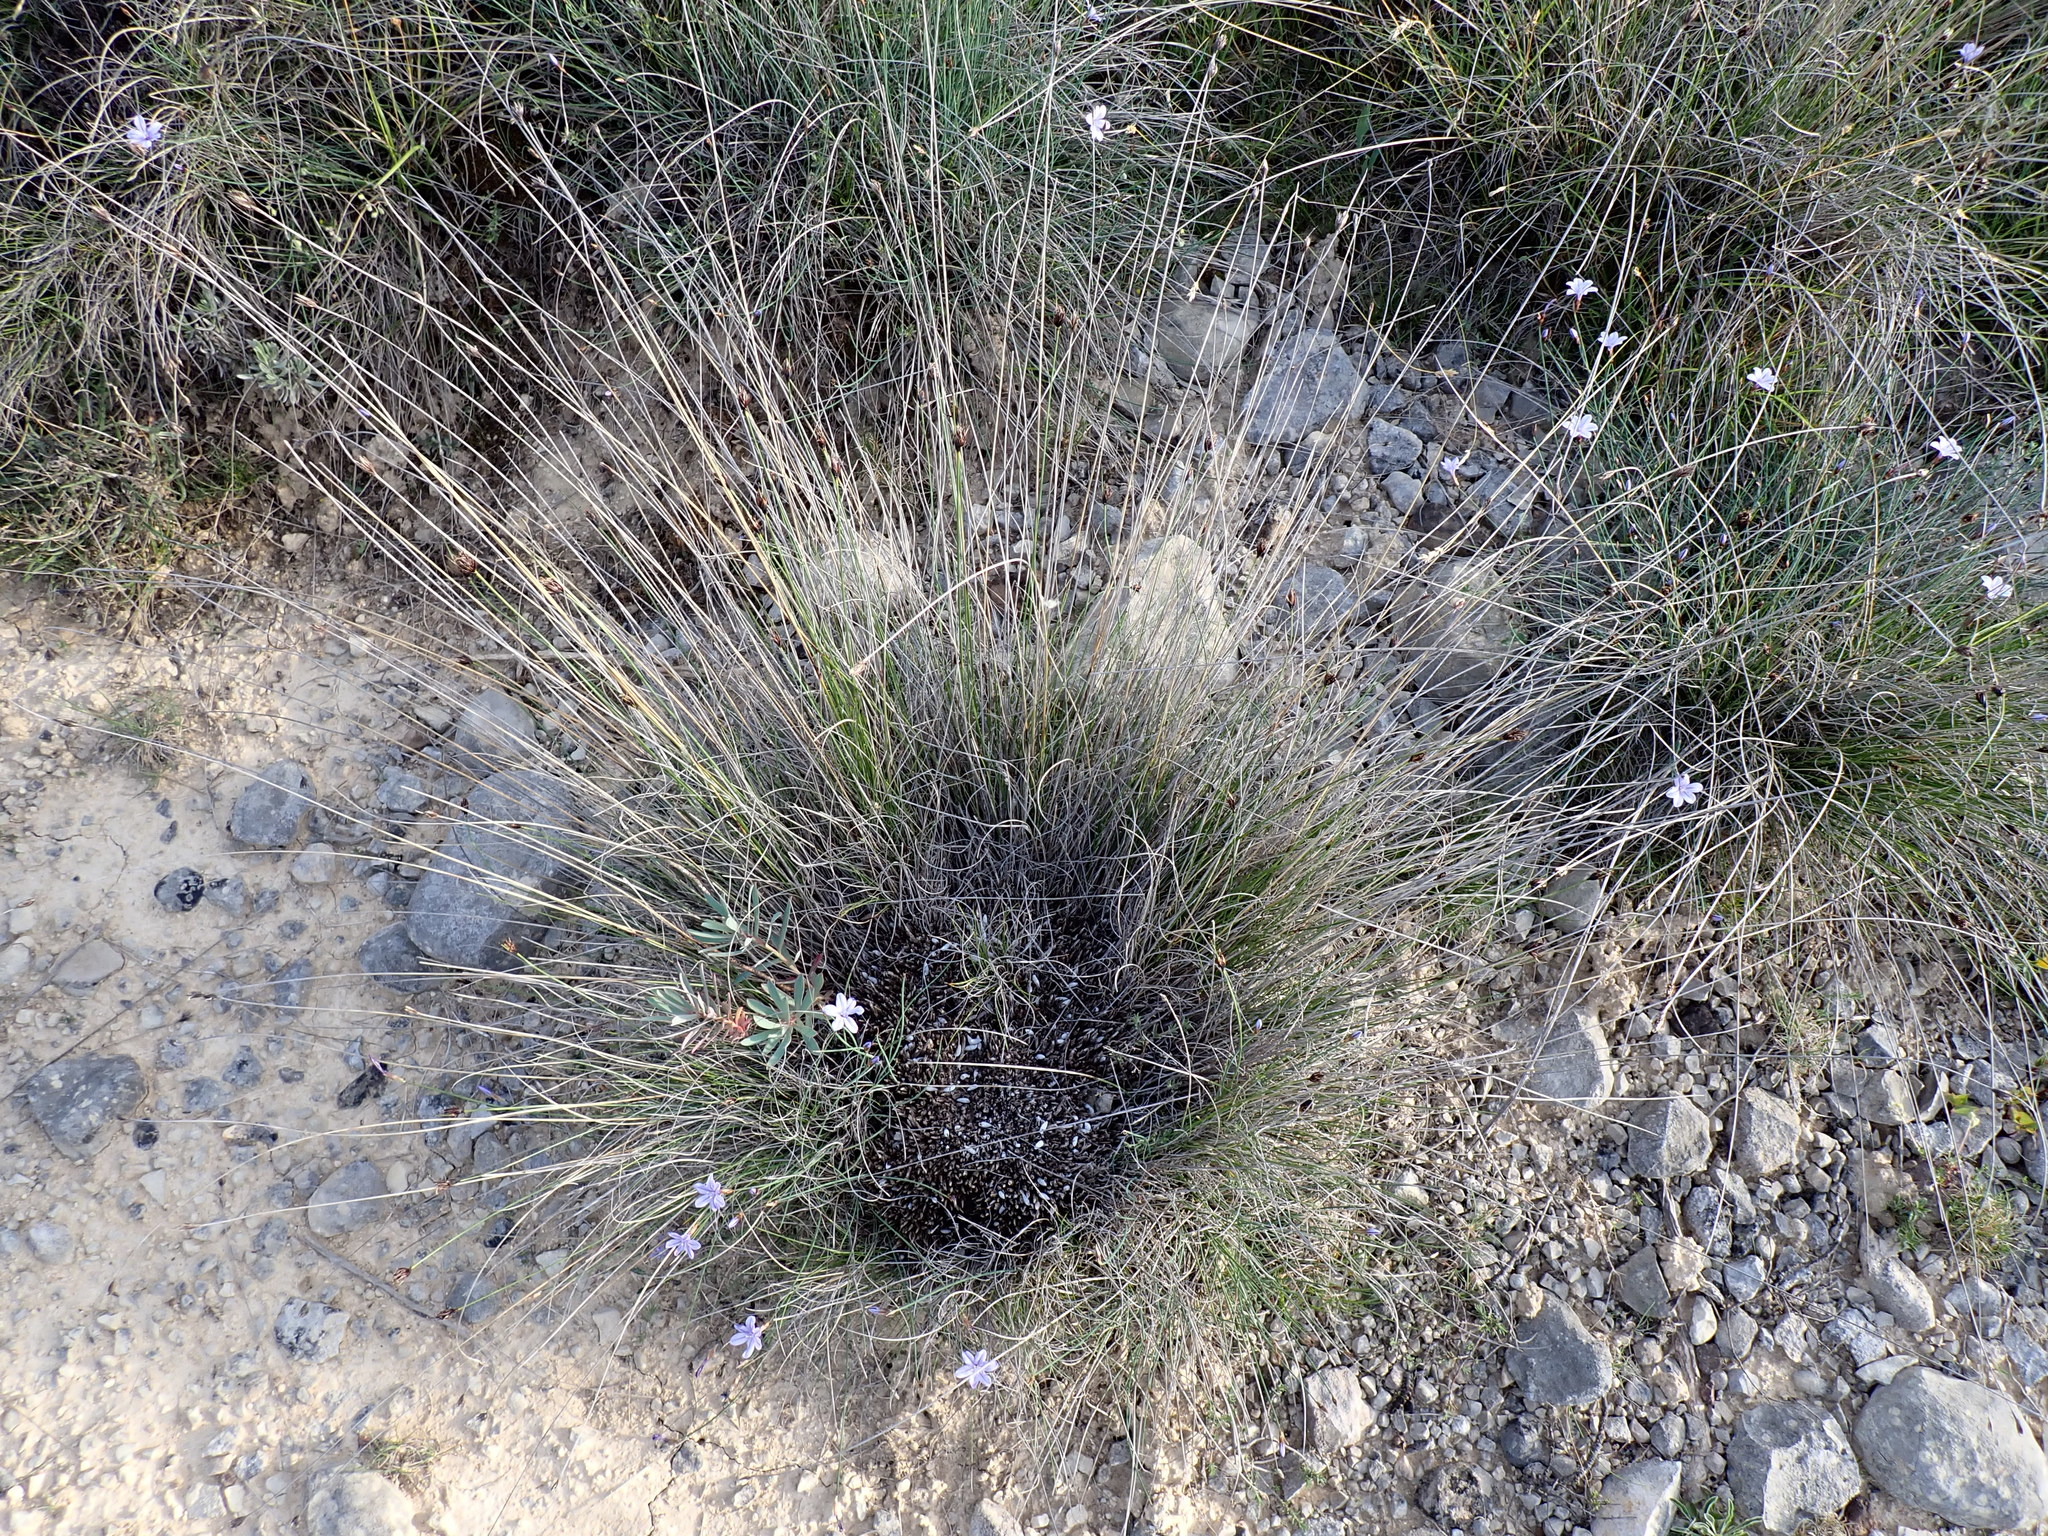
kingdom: Plantae
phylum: Tracheophyta
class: Liliopsida
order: Poales
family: Cyperaceae
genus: Schoenus
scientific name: Schoenus nigricans
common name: Black bog-rush
